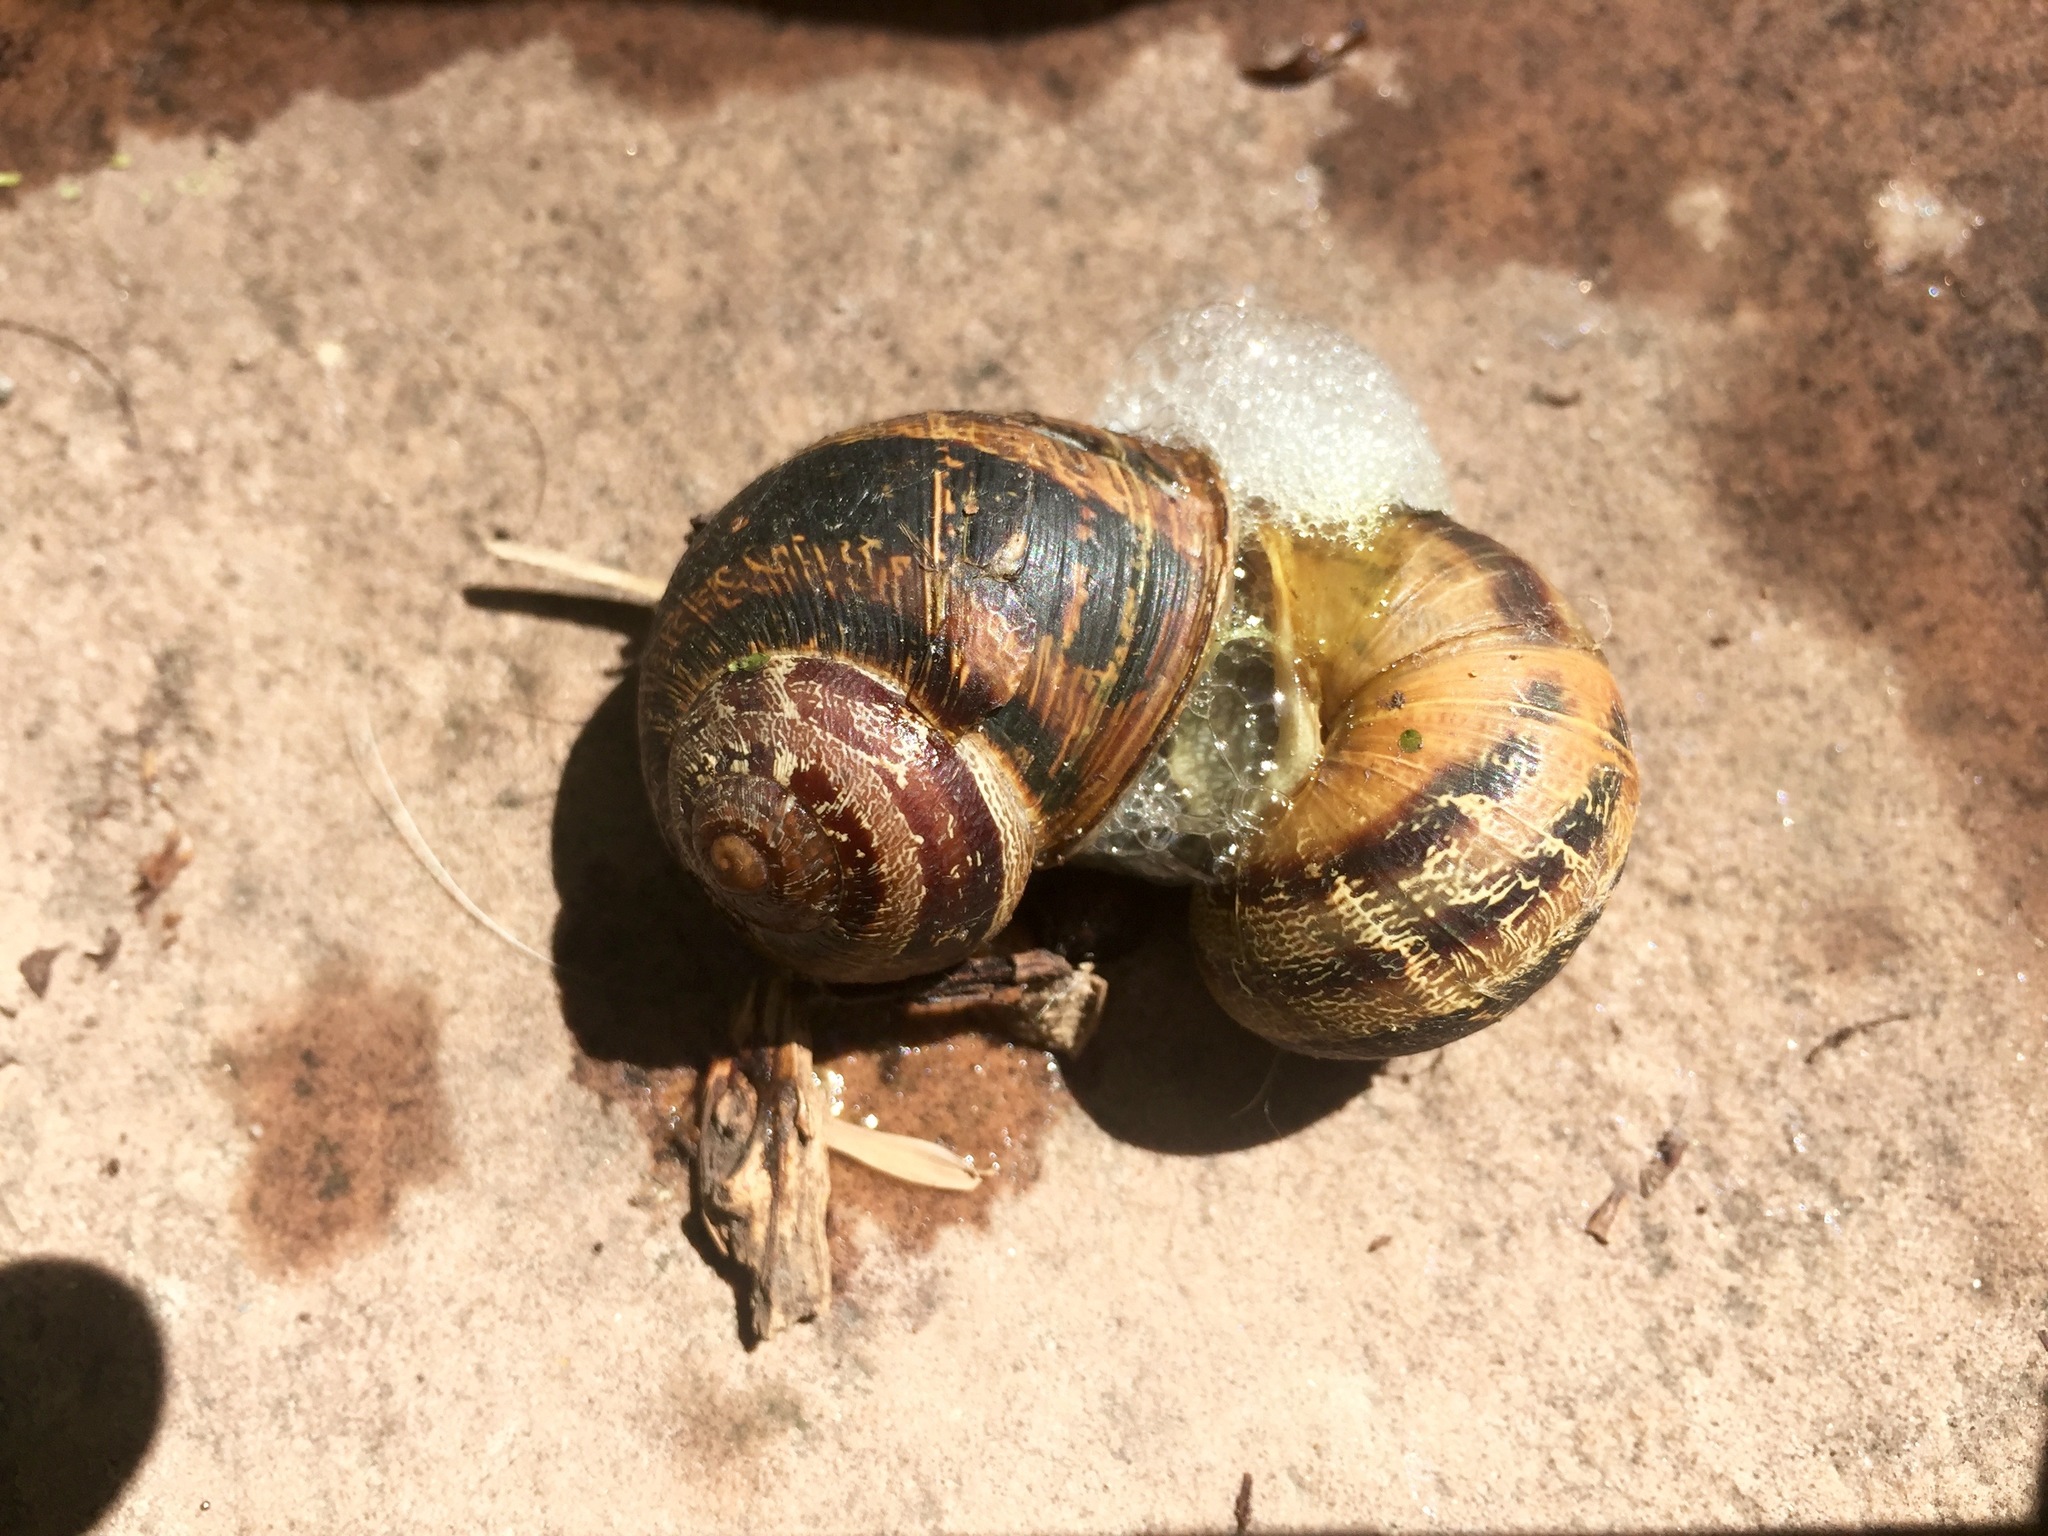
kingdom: Animalia
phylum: Mollusca
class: Gastropoda
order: Stylommatophora
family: Helicidae
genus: Cornu
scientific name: Cornu aspersum
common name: Brown garden snail
